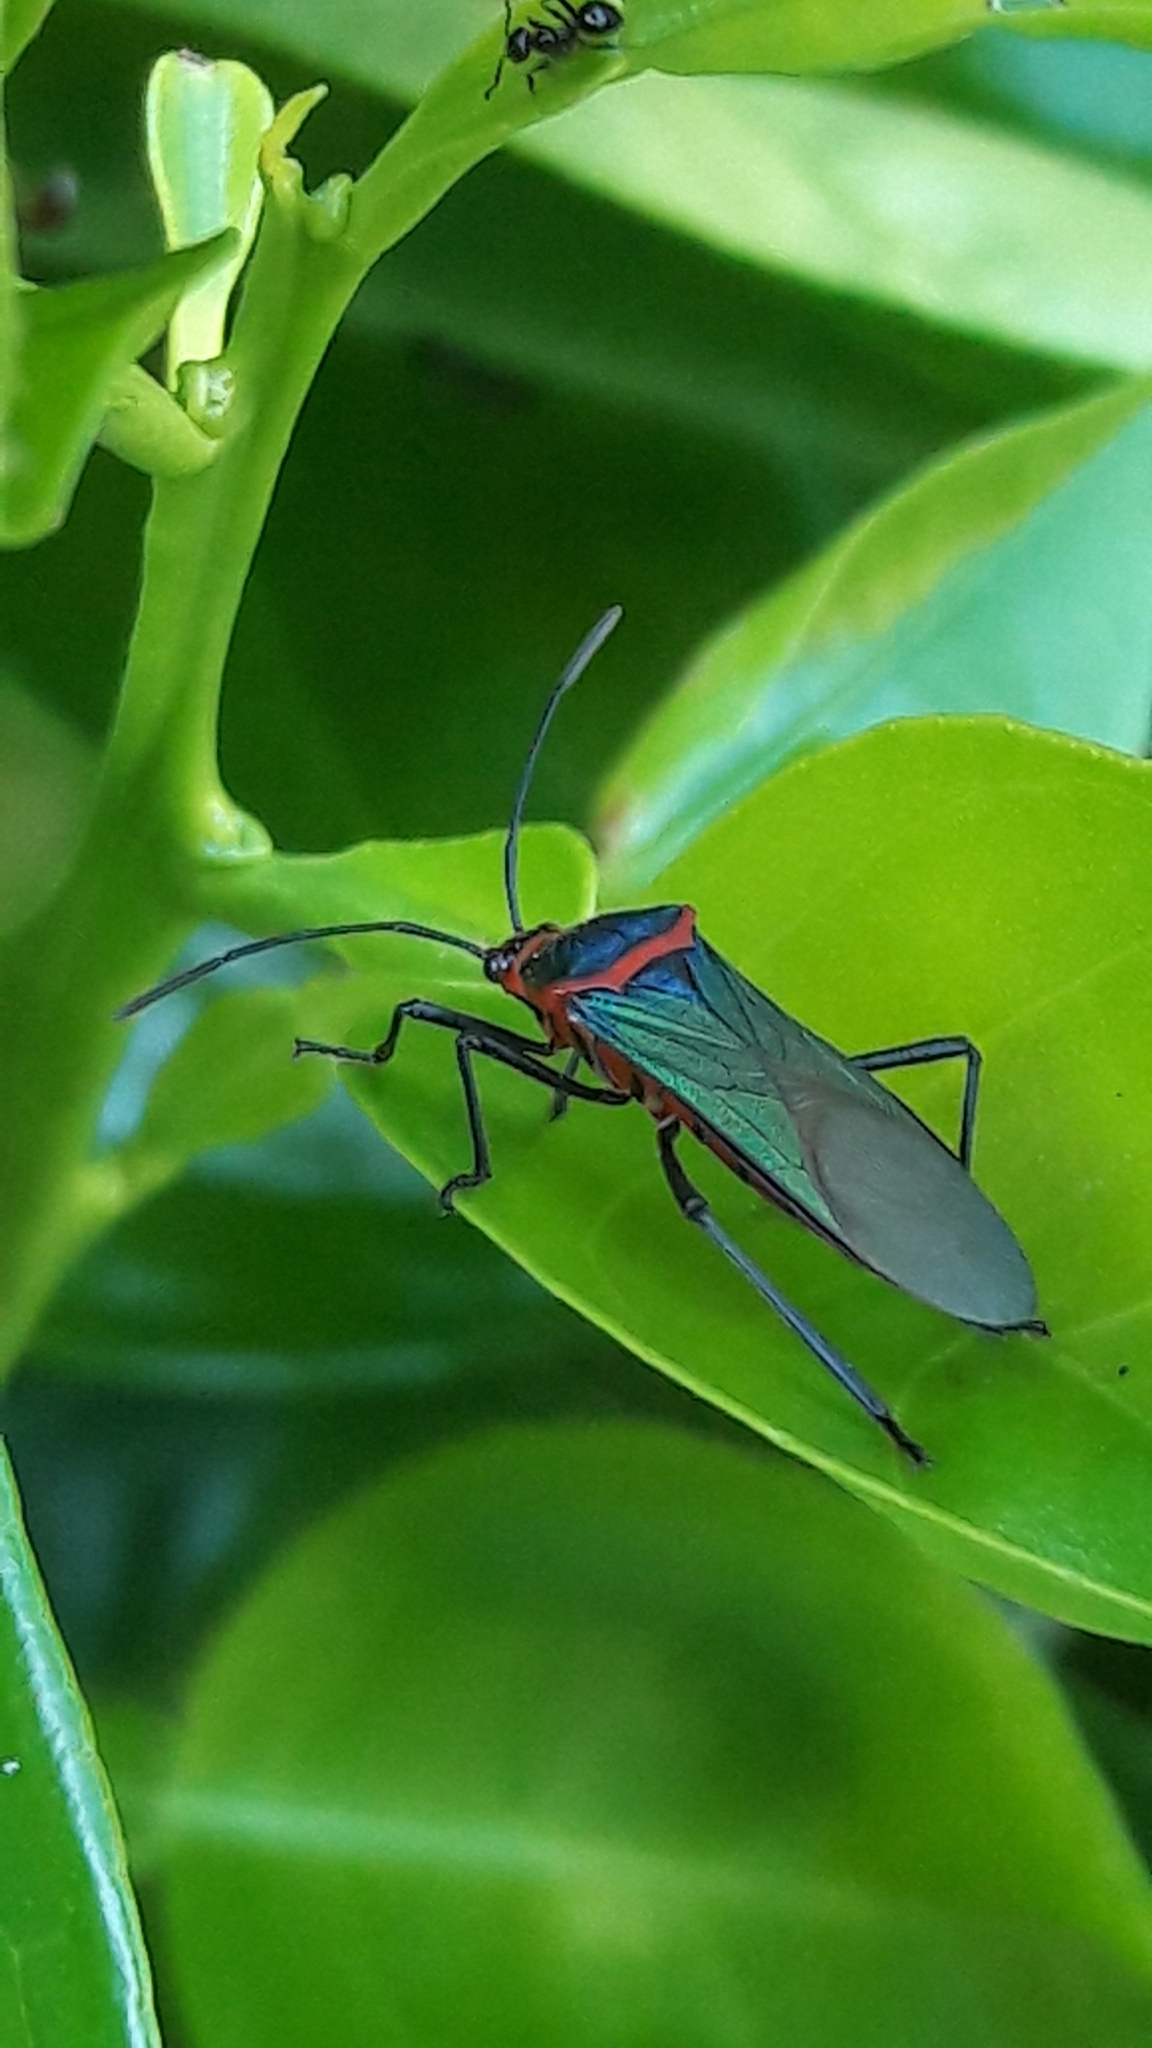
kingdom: Animalia
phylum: Arthropoda
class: Insecta
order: Hemiptera
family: Coreidae
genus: Sphictyrtus
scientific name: Sphictyrtus chrysis
